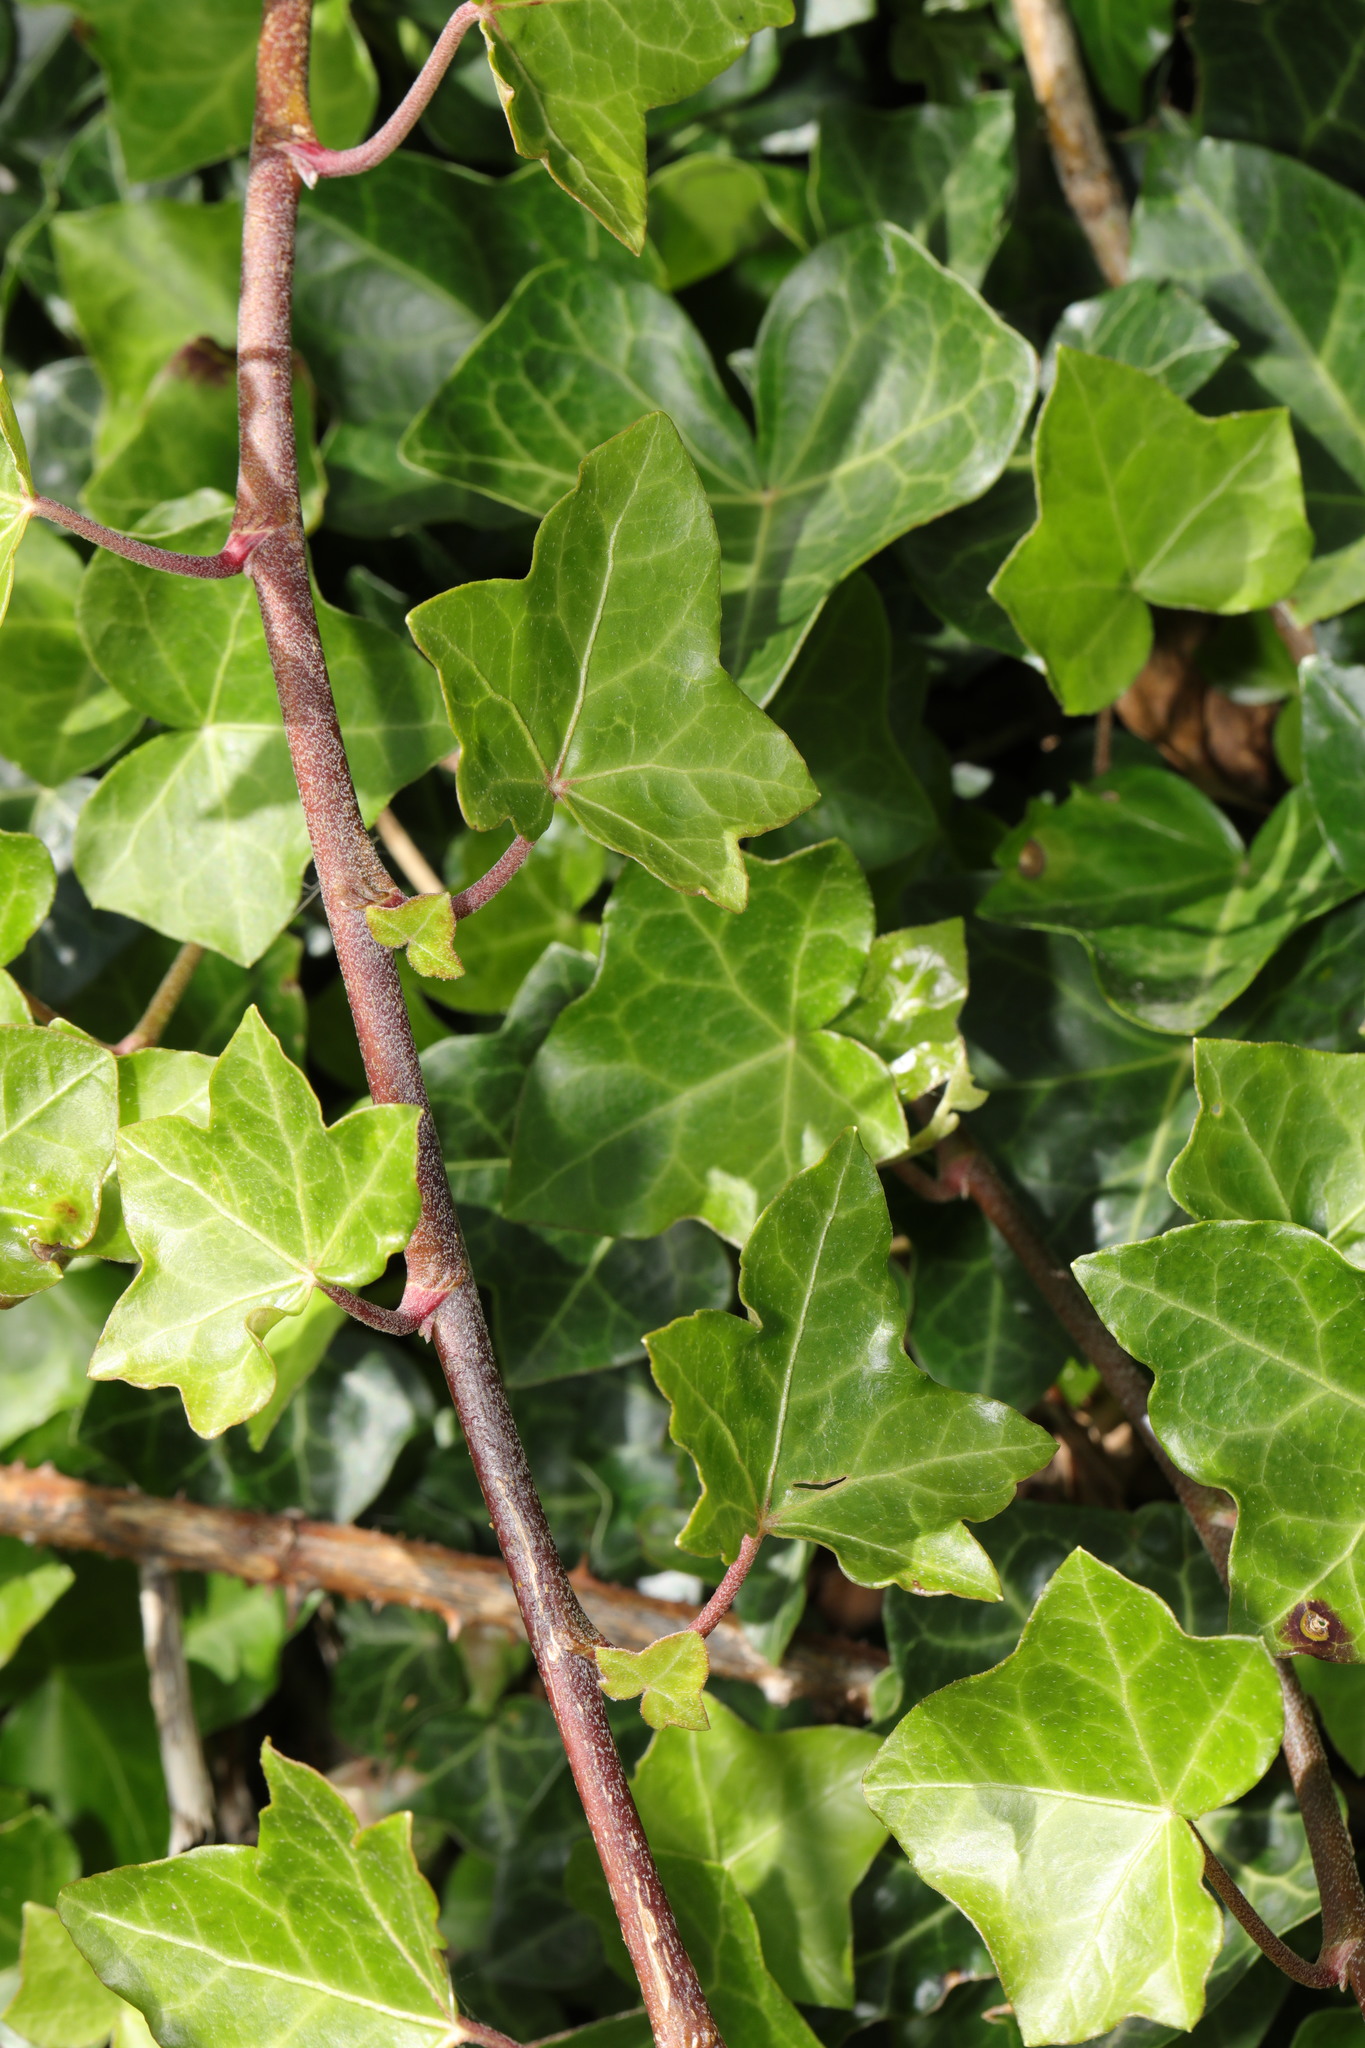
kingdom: Plantae
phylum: Tracheophyta
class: Magnoliopsida
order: Apiales
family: Araliaceae
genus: Hedera
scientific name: Hedera helix
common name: Ivy
